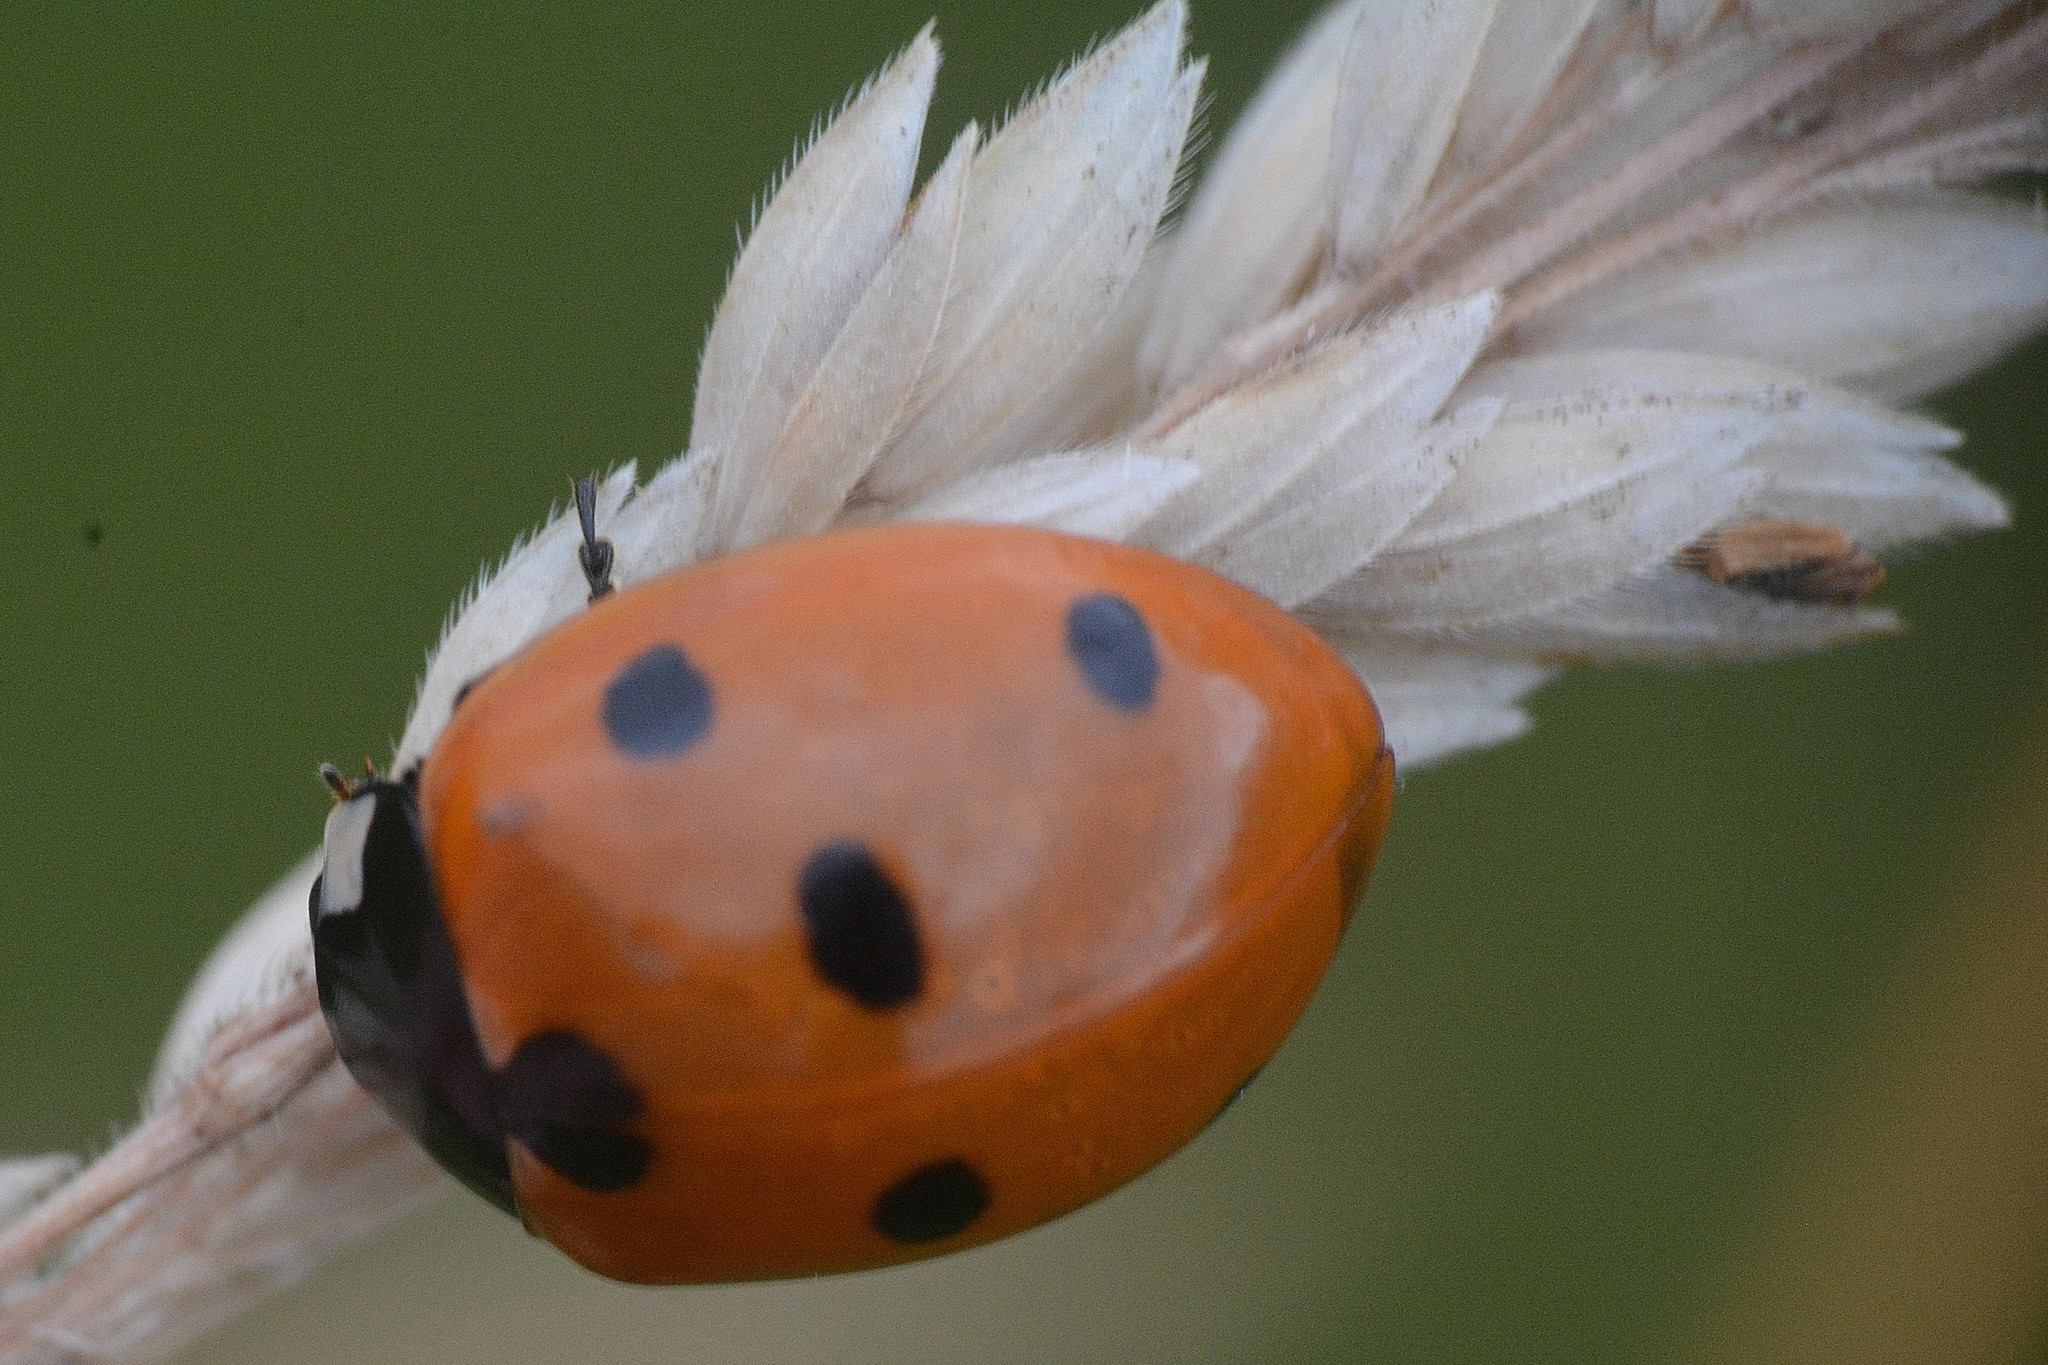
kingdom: Animalia
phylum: Arthropoda
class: Insecta
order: Coleoptera
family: Coccinellidae
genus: Coccinella
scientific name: Coccinella septempunctata
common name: Sevenspotted lady beetle
